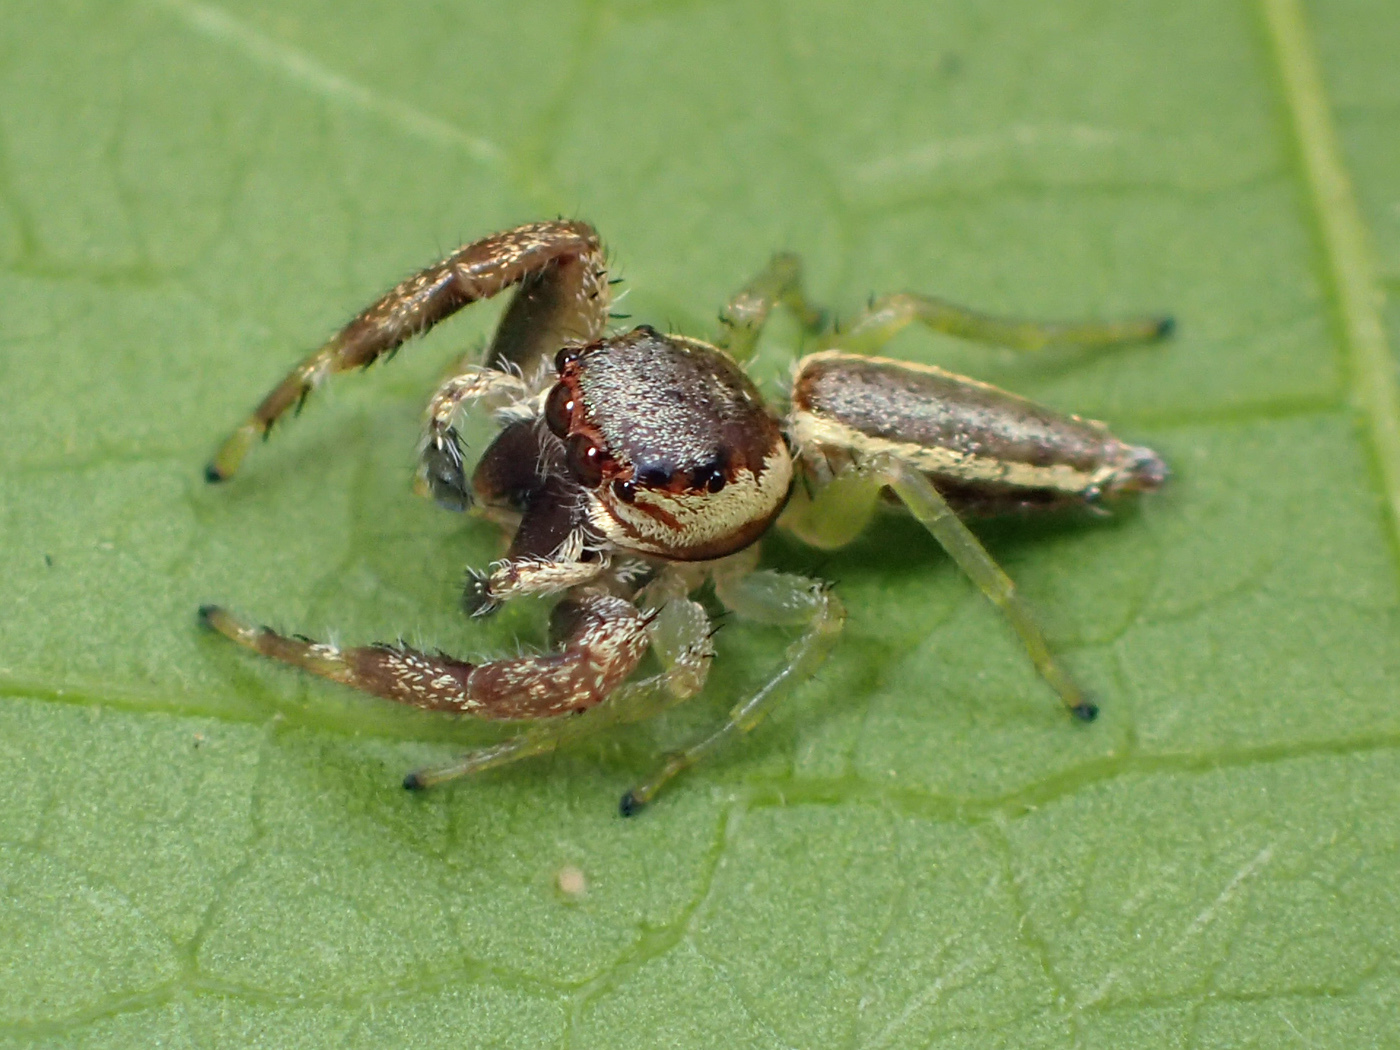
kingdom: Animalia
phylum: Arthropoda
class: Arachnida
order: Araneae
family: Salticidae
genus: Hentzia
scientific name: Hentzia vittata
